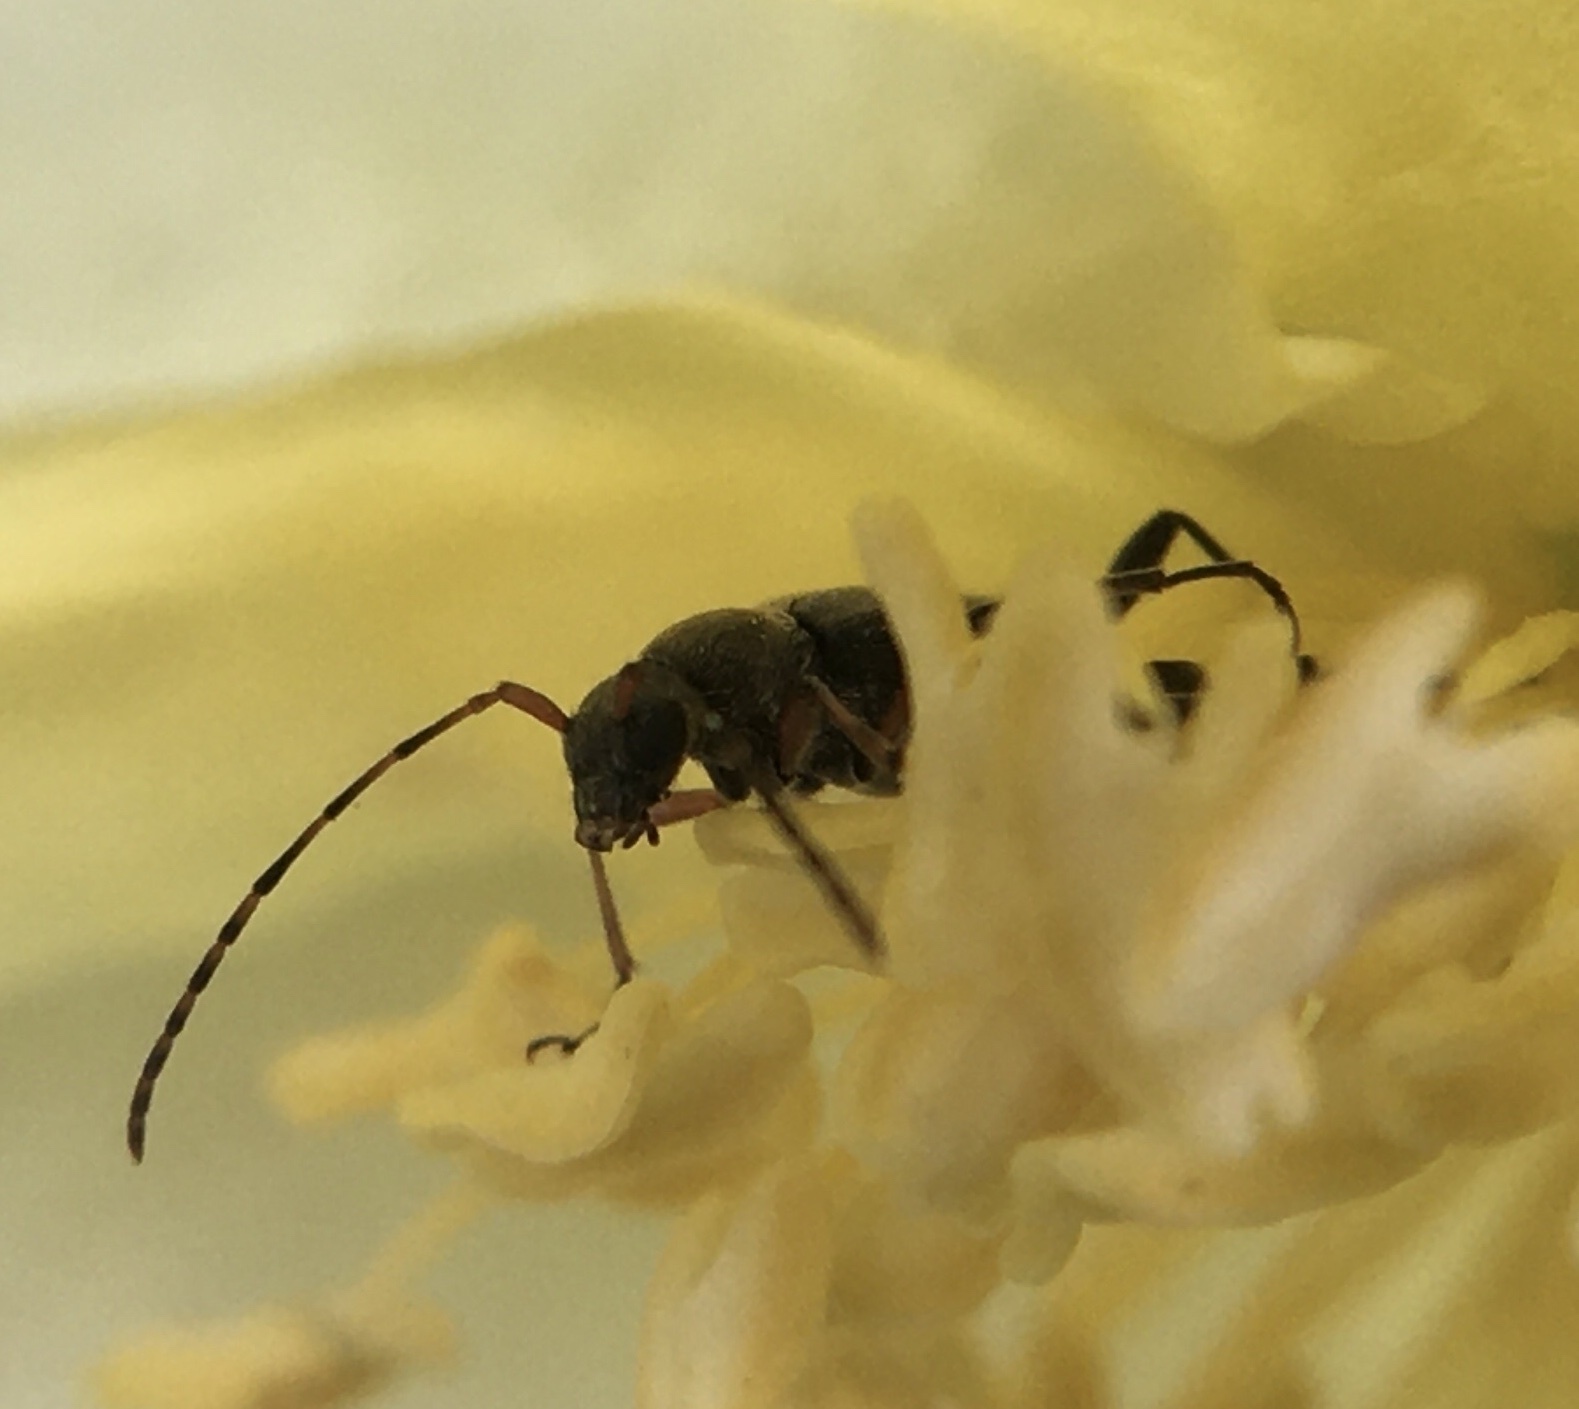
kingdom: Animalia
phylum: Arthropoda
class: Insecta
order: Coleoptera
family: Cerambycidae
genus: Grammoptera
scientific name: Grammoptera ruficornis
